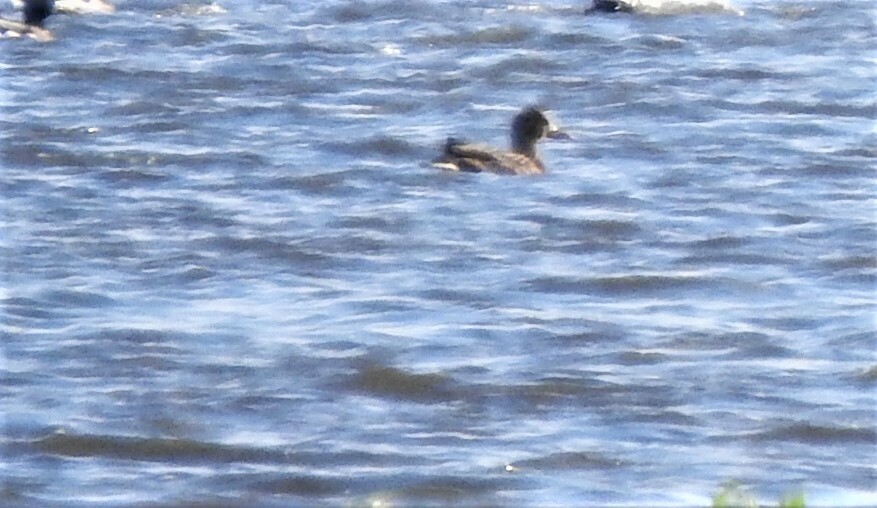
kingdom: Animalia
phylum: Chordata
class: Aves
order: Anseriformes
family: Anatidae
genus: Aythya
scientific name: Aythya fuligula
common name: Tufted duck
